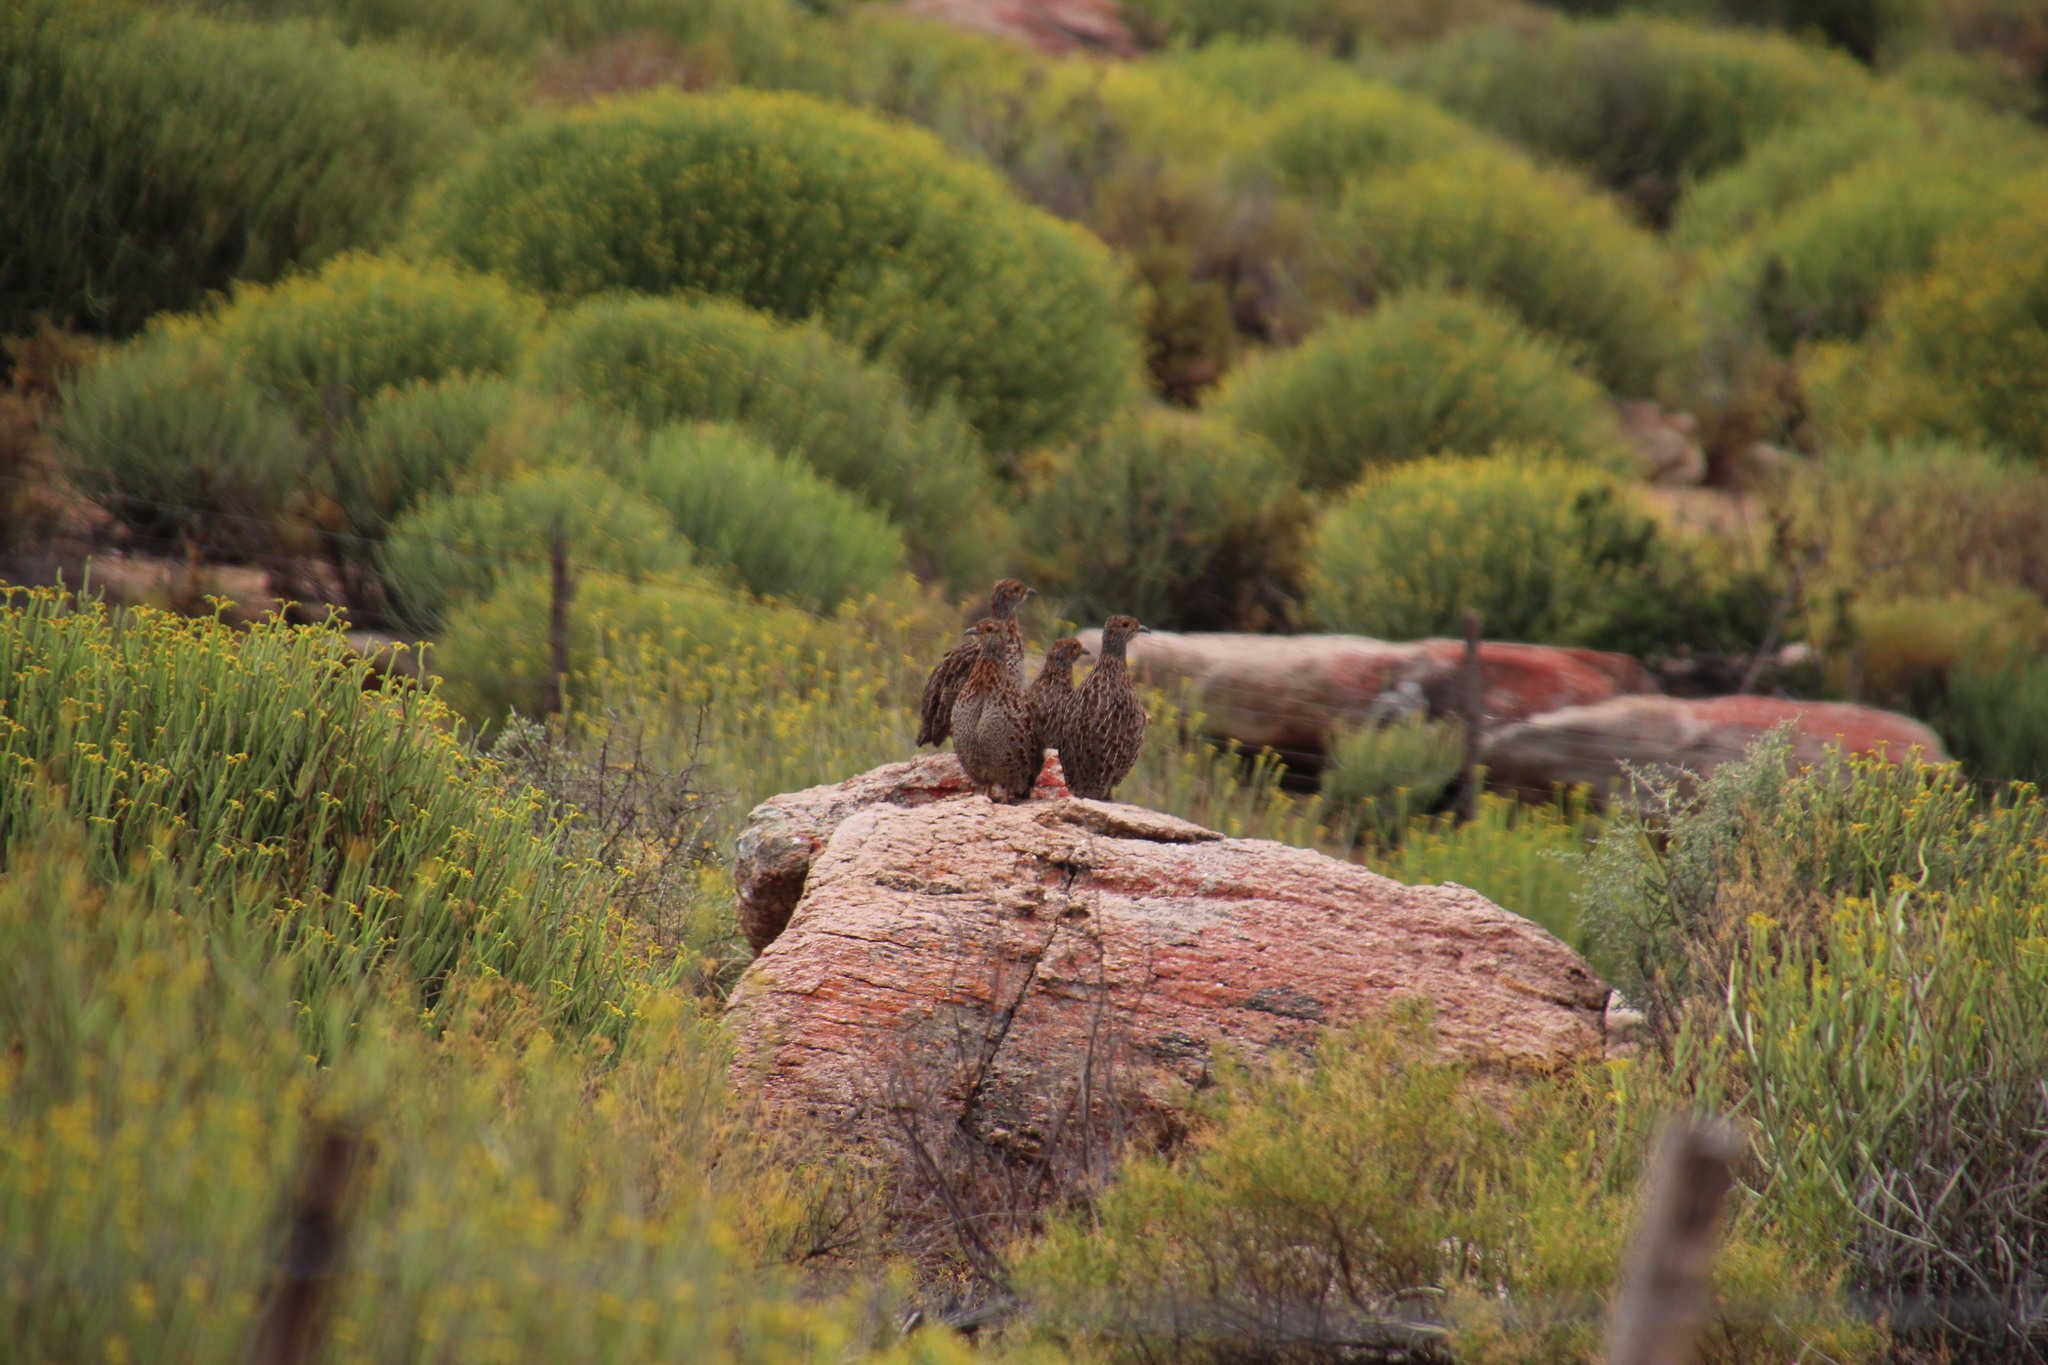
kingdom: Animalia
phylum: Chordata
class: Aves
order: Galliformes
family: Phasianidae
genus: Scleroptila
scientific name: Scleroptila afra
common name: Grey-winged francolin
